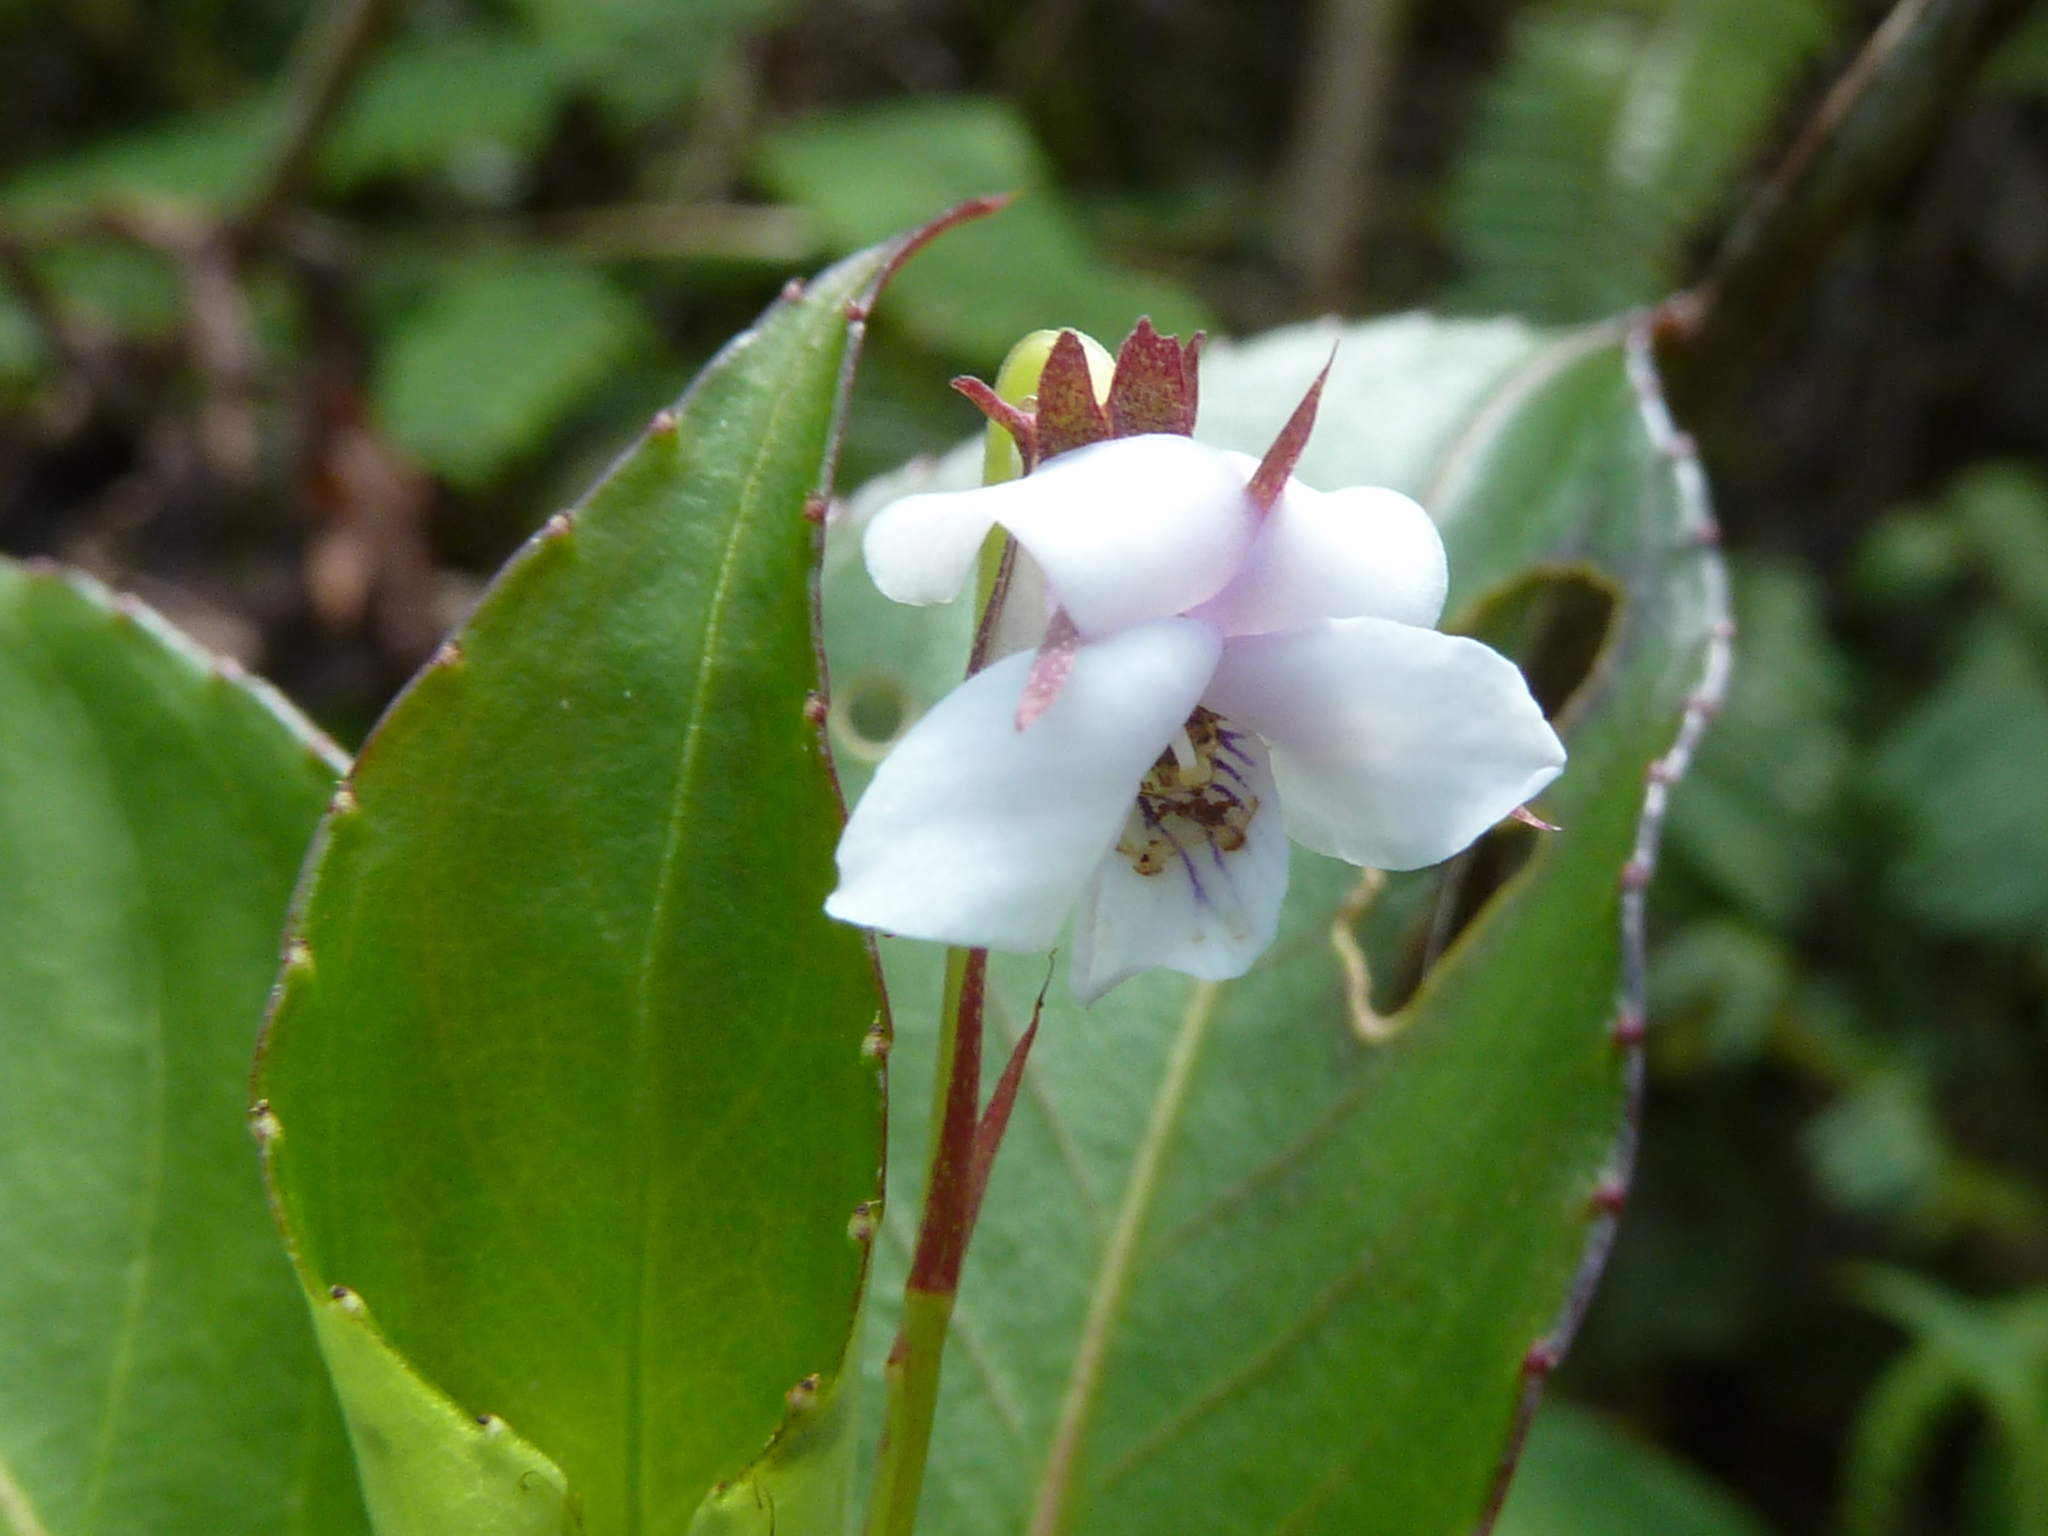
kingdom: Plantae
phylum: Tracheophyta
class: Magnoliopsida
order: Malpighiales
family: Violaceae
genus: Viola
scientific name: Viola stipularis
